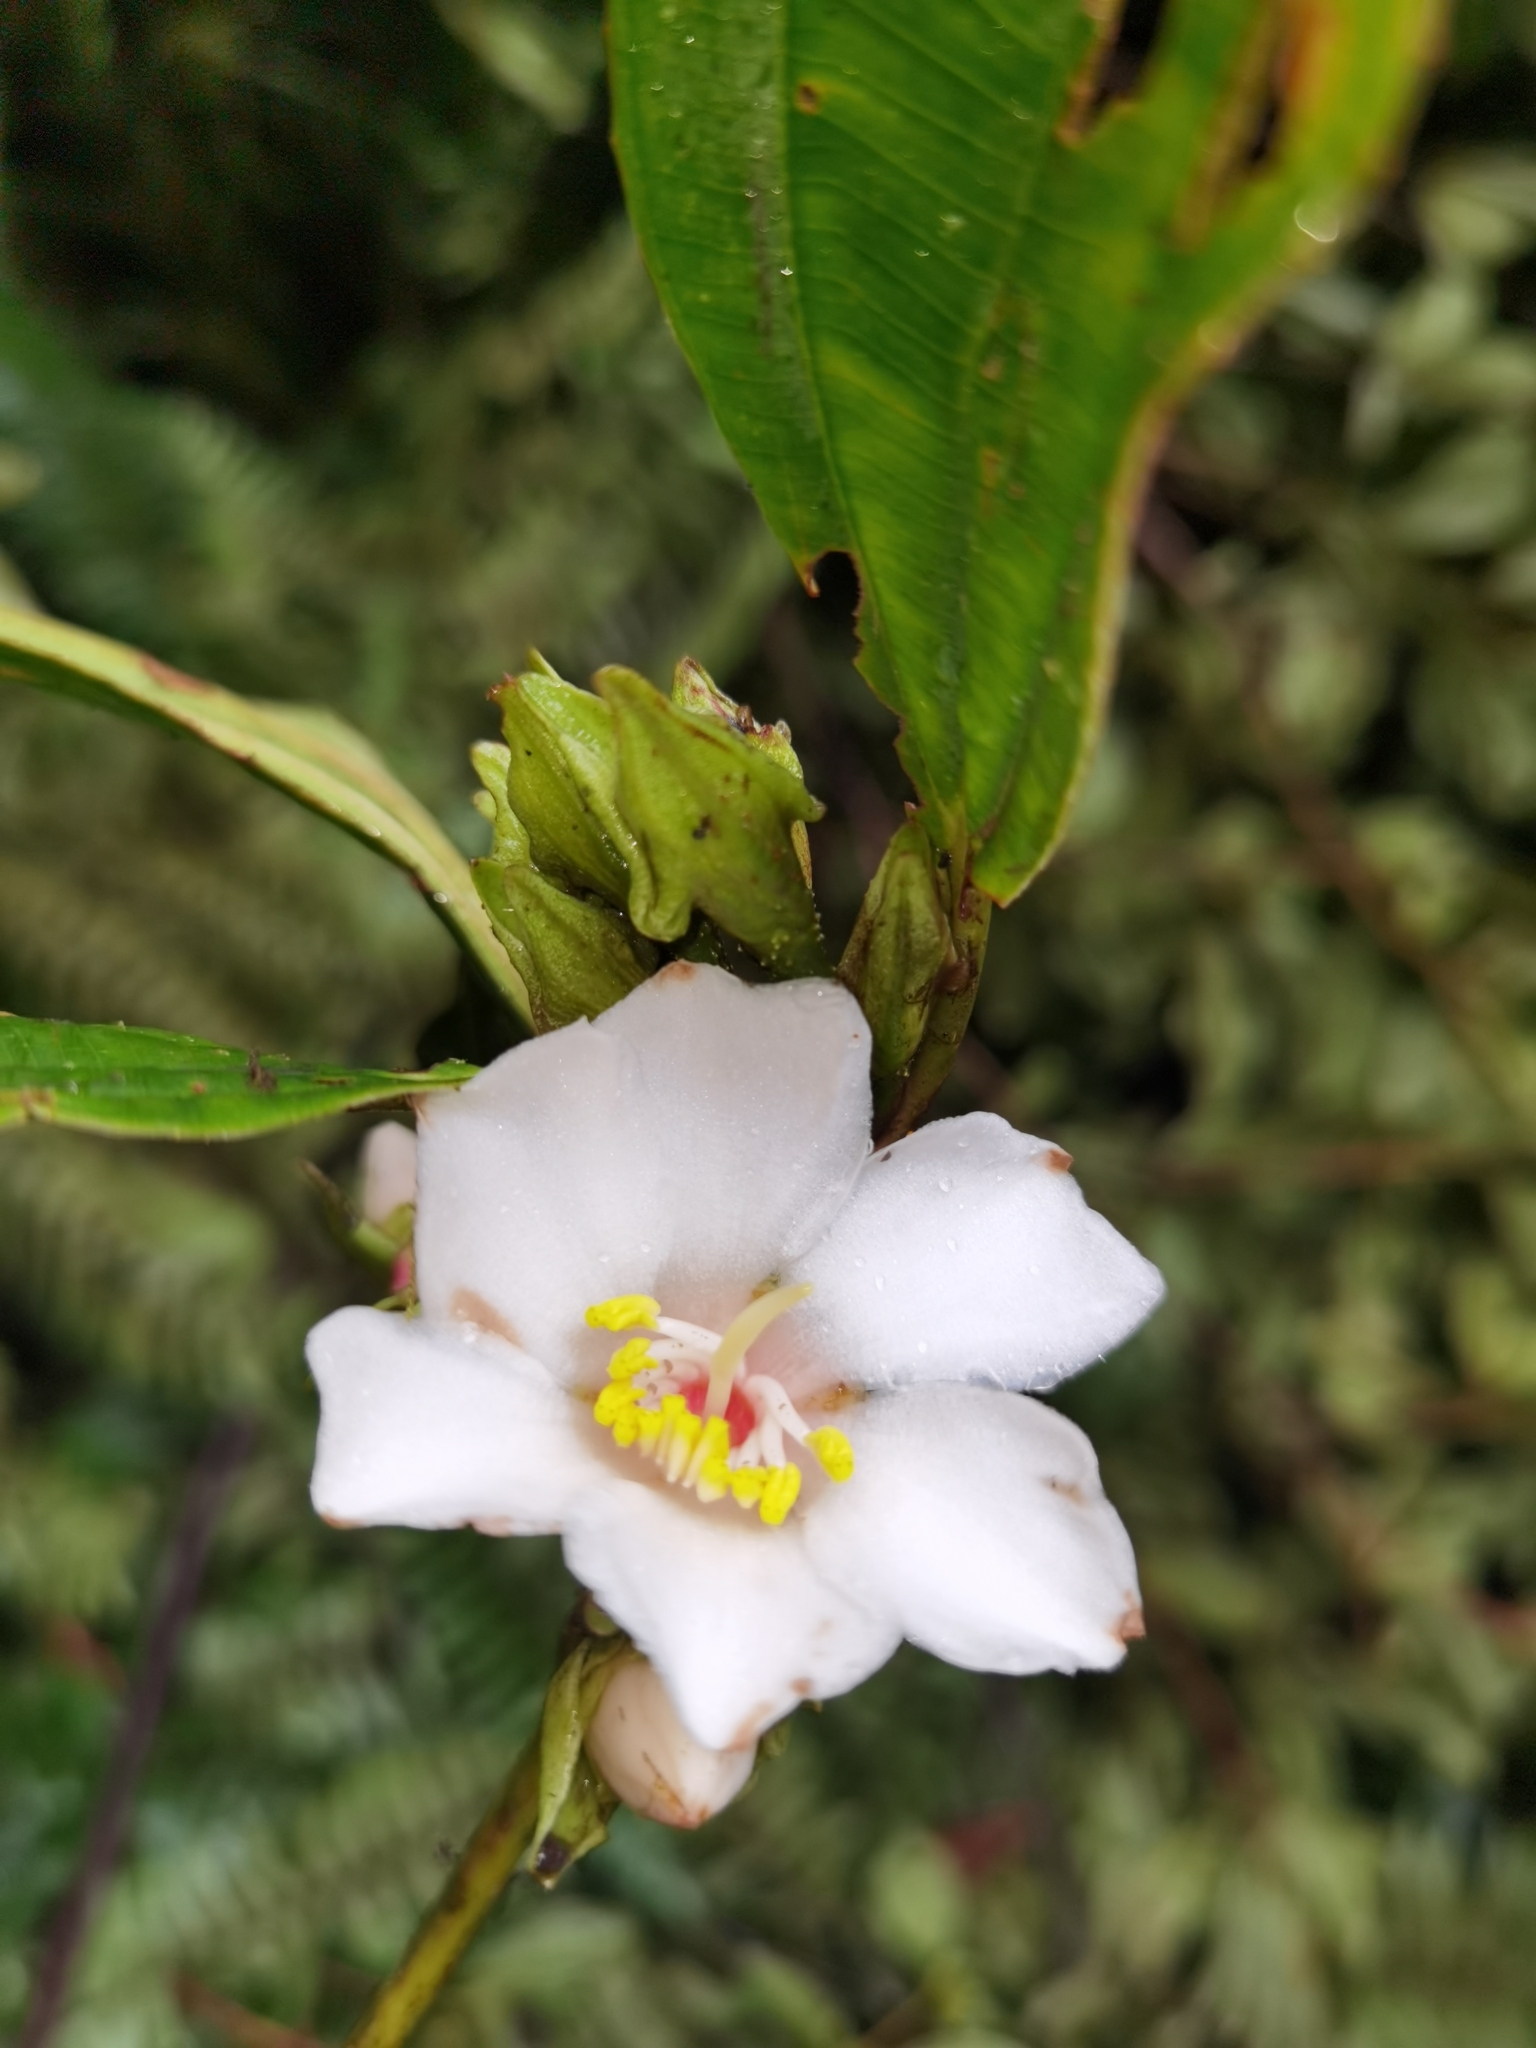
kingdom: Plantae
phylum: Tracheophyta
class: Magnoliopsida
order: Myrtales
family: Melastomataceae
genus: Blakea
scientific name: Blakea grandiflora
